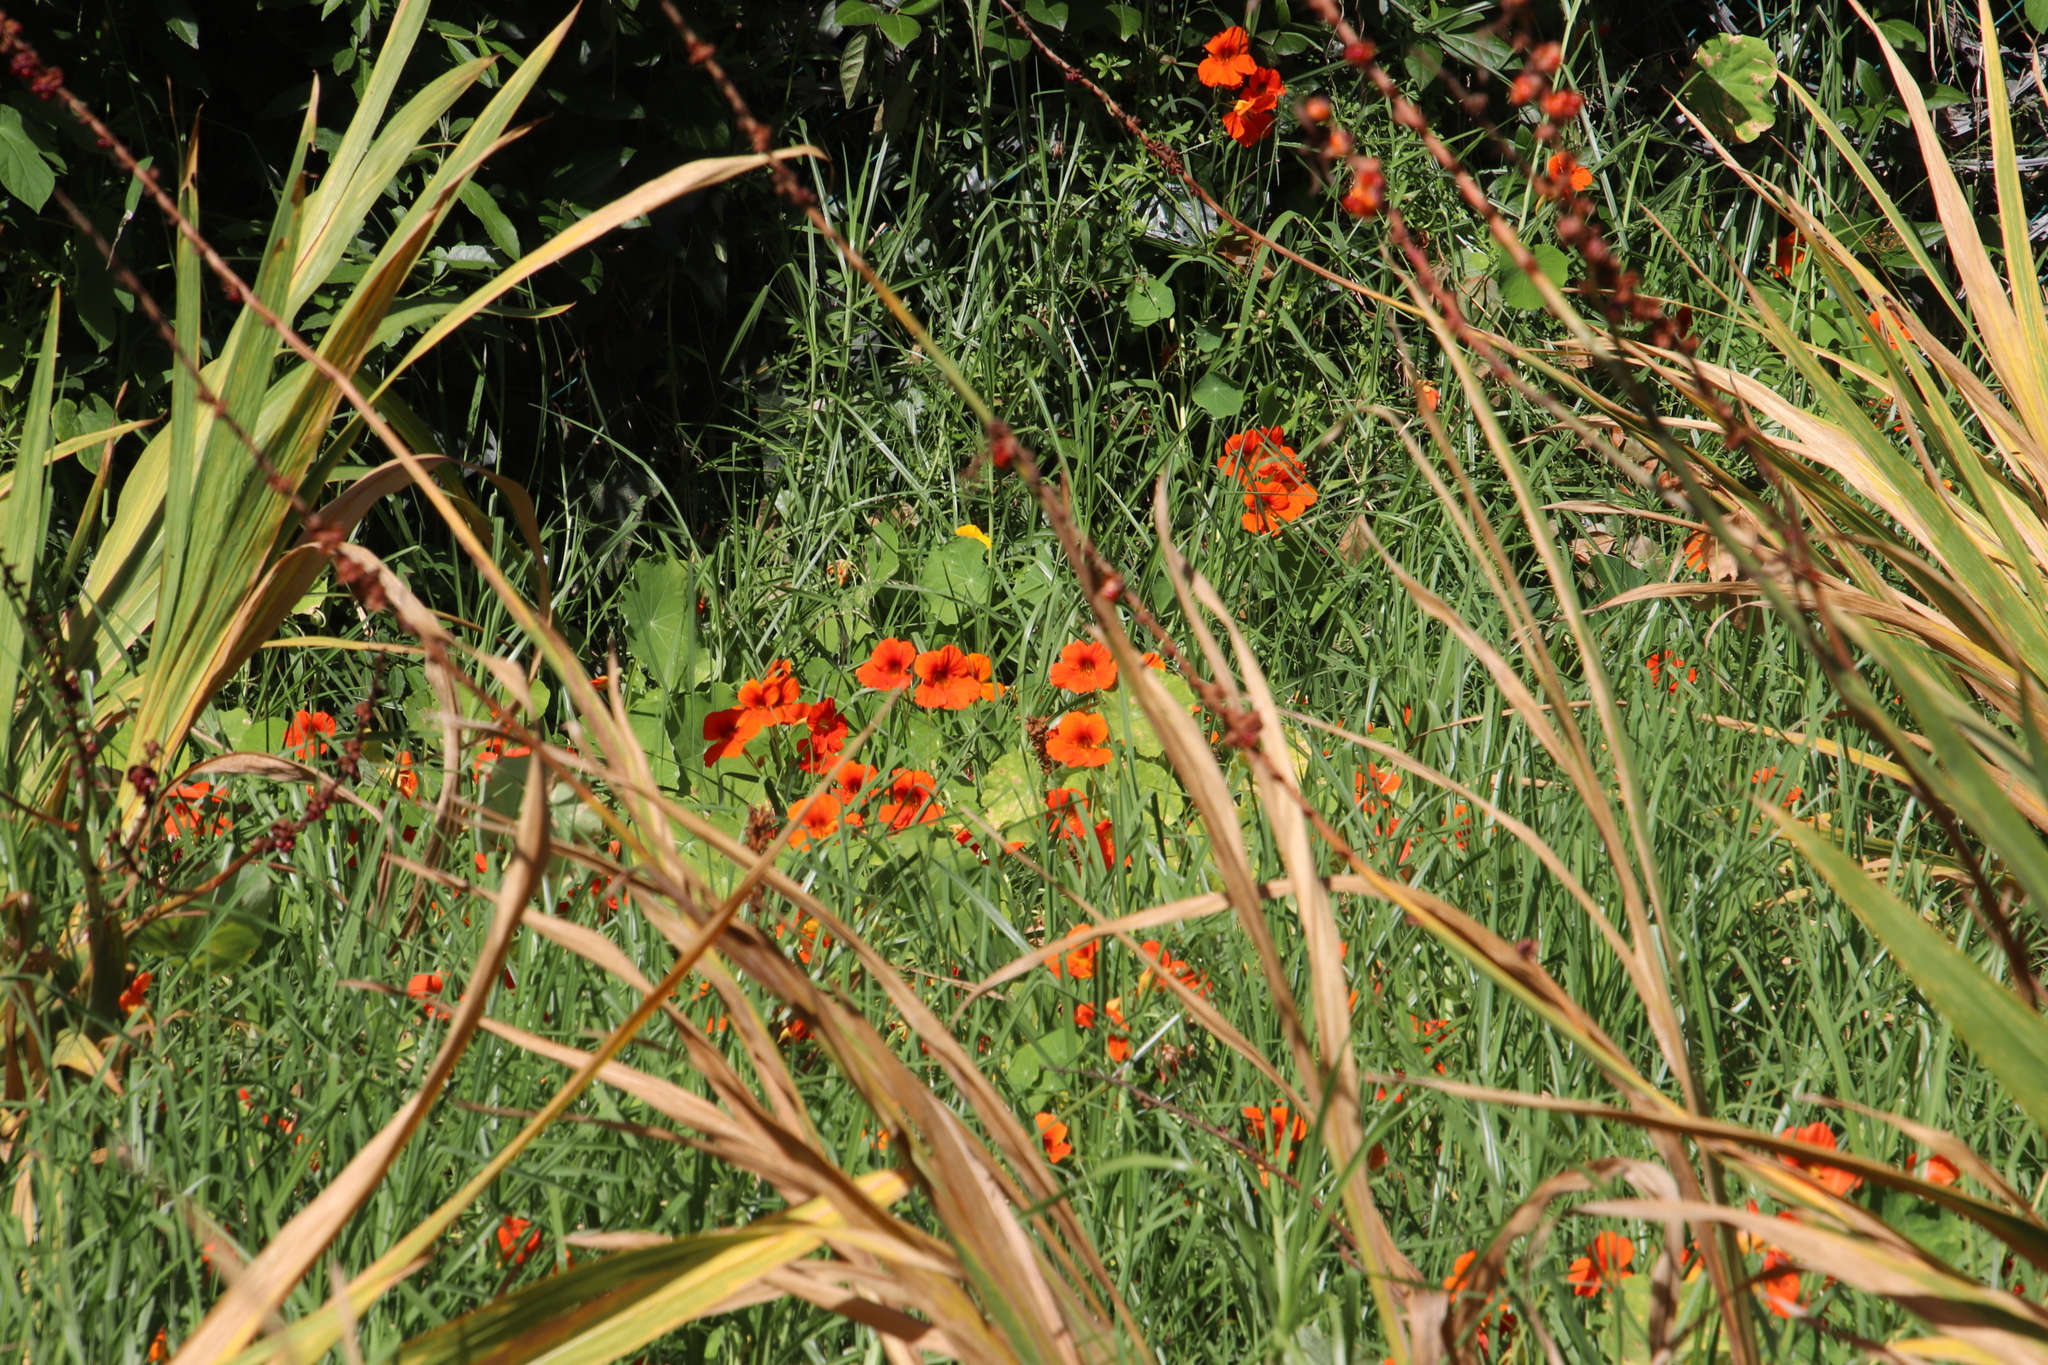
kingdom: Plantae
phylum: Tracheophyta
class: Magnoliopsida
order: Brassicales
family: Tropaeolaceae
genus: Tropaeolum
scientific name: Tropaeolum majus
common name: Nasturtium
